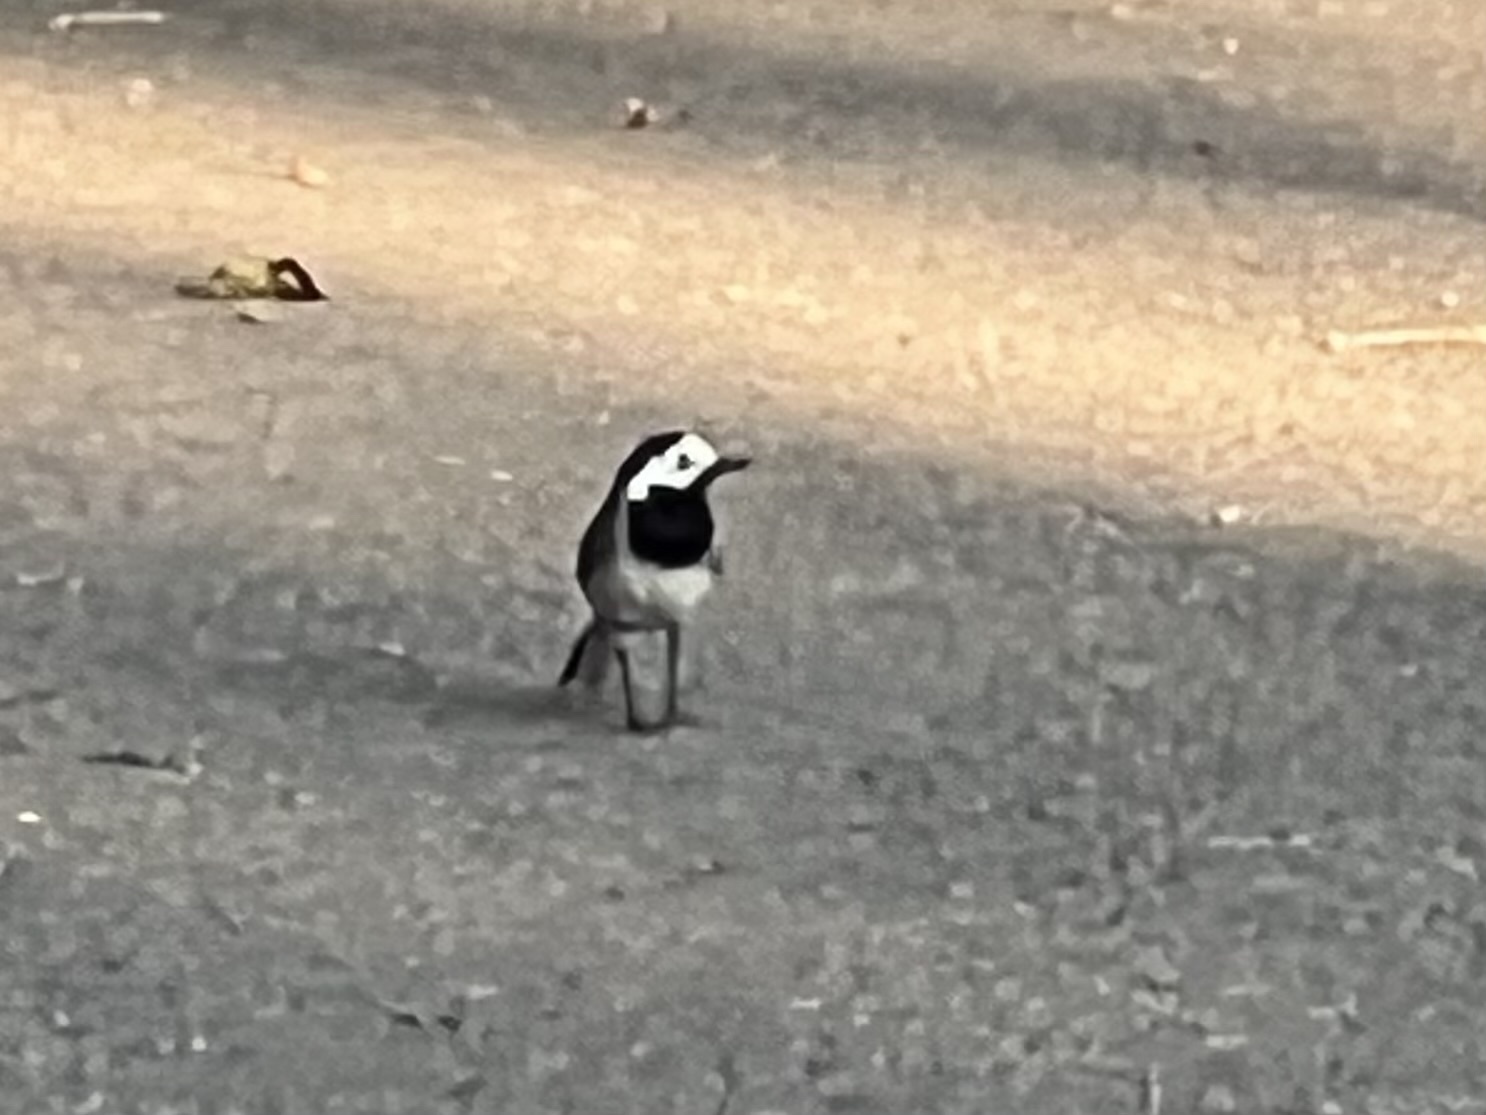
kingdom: Animalia
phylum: Chordata
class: Aves
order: Passeriformes
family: Motacillidae
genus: Motacilla
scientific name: Motacilla alba
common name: White wagtail
